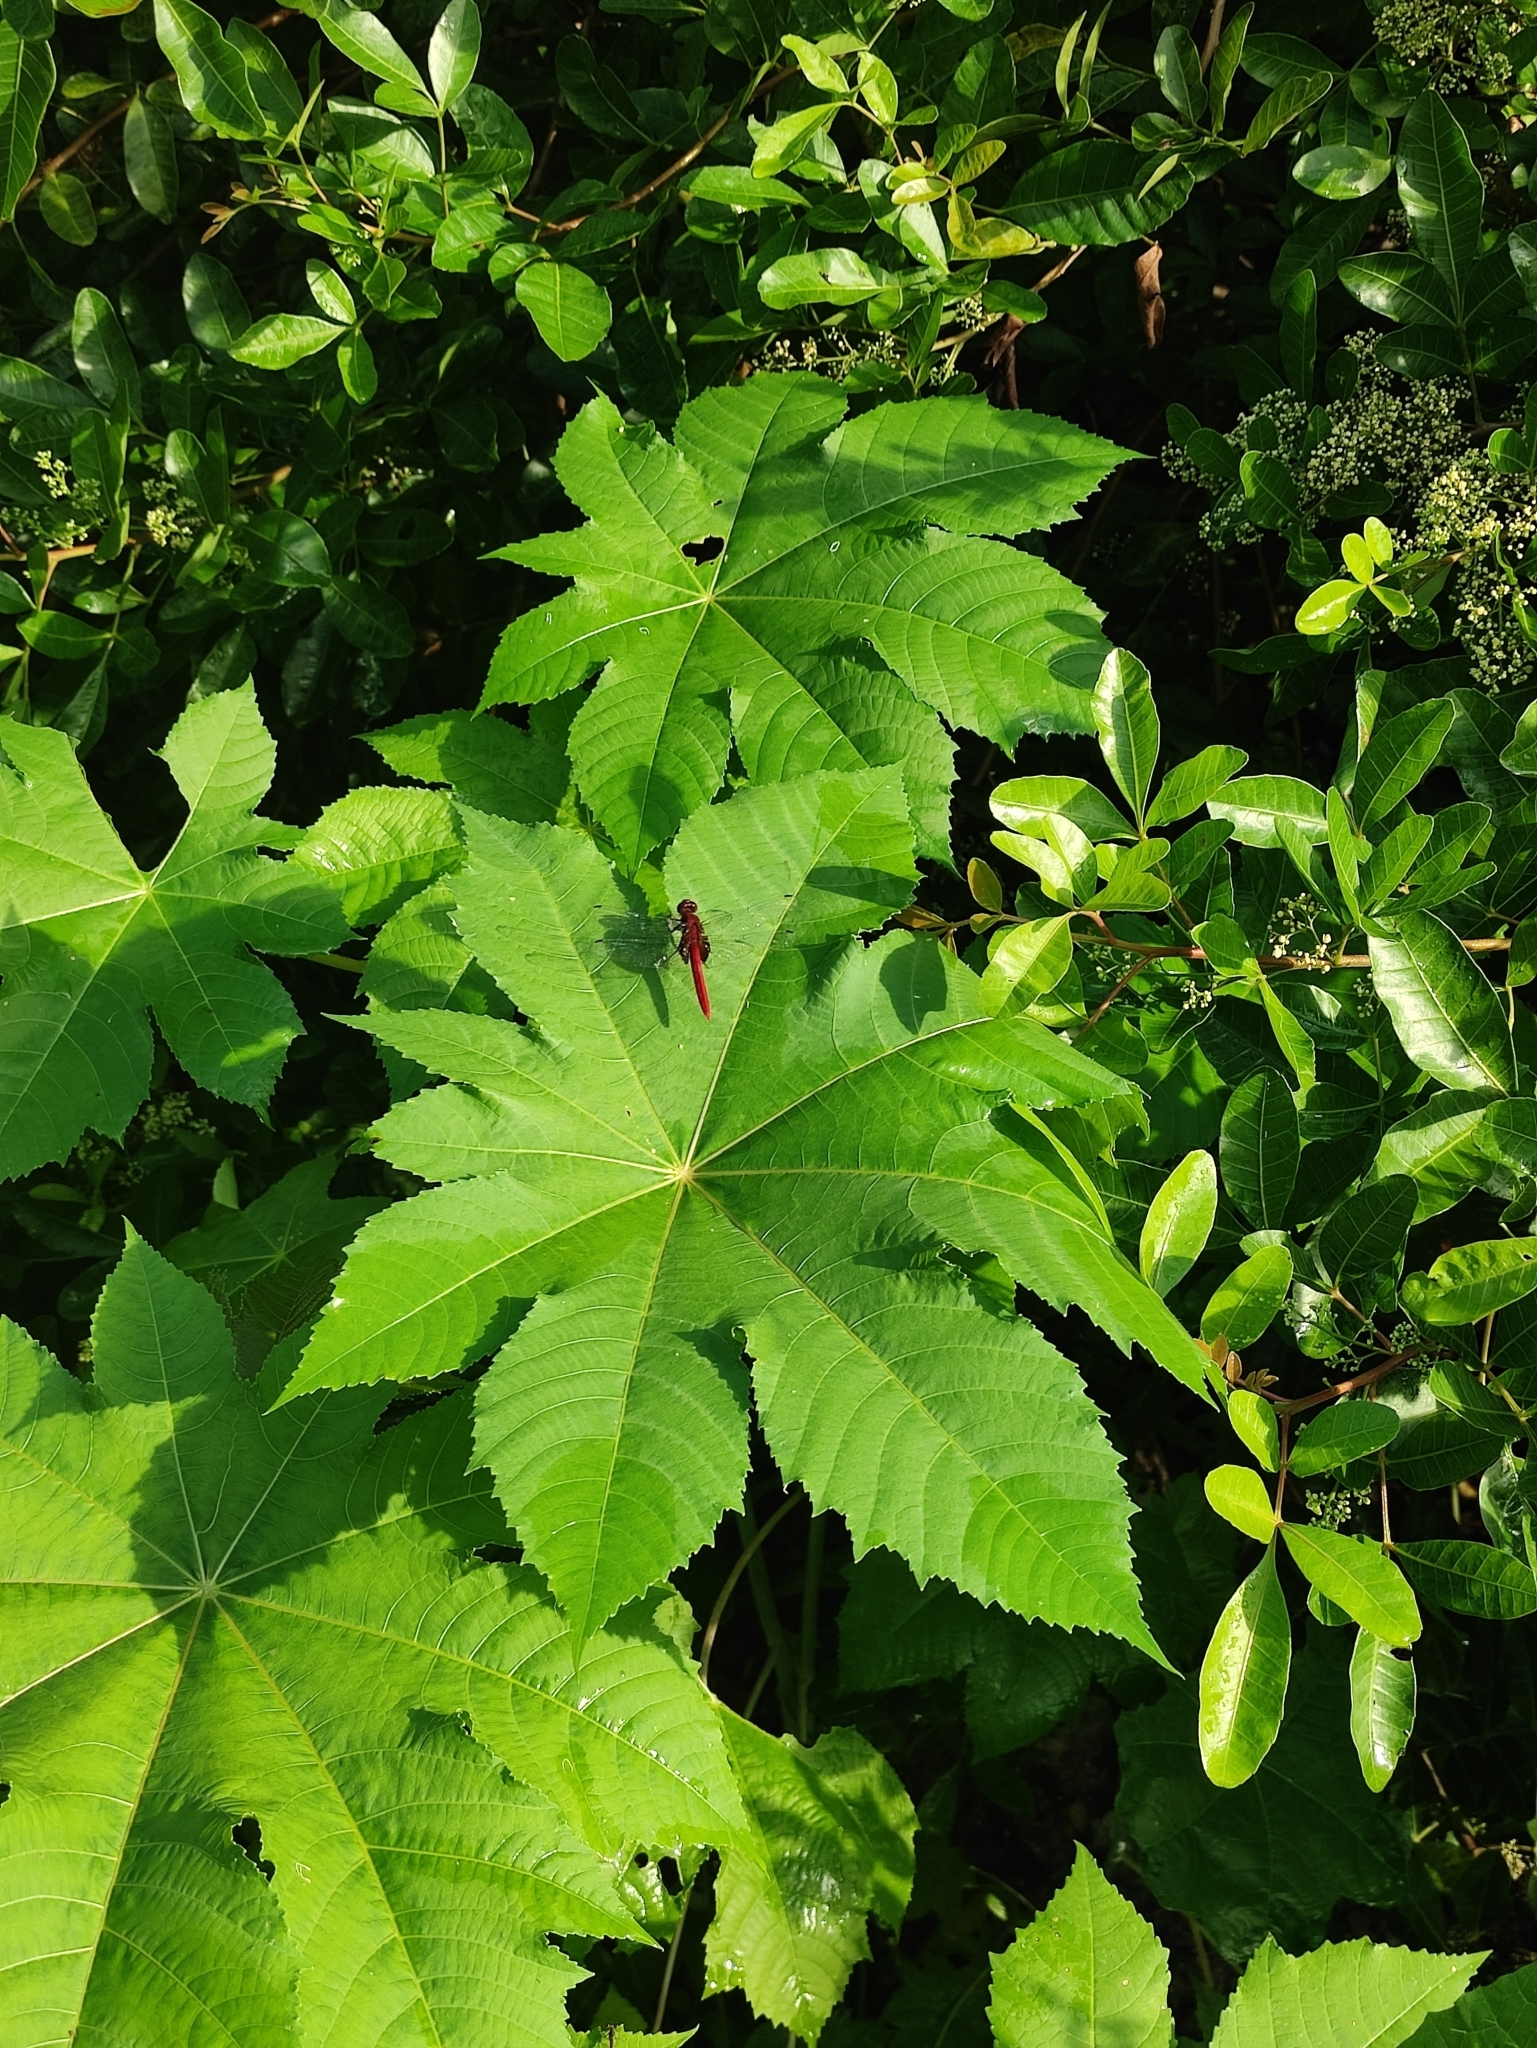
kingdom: Animalia
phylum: Arthropoda
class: Insecta
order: Odonata
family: Libellulidae
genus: Orthemis
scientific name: Orthemis discolor
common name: Carmine skimmer
